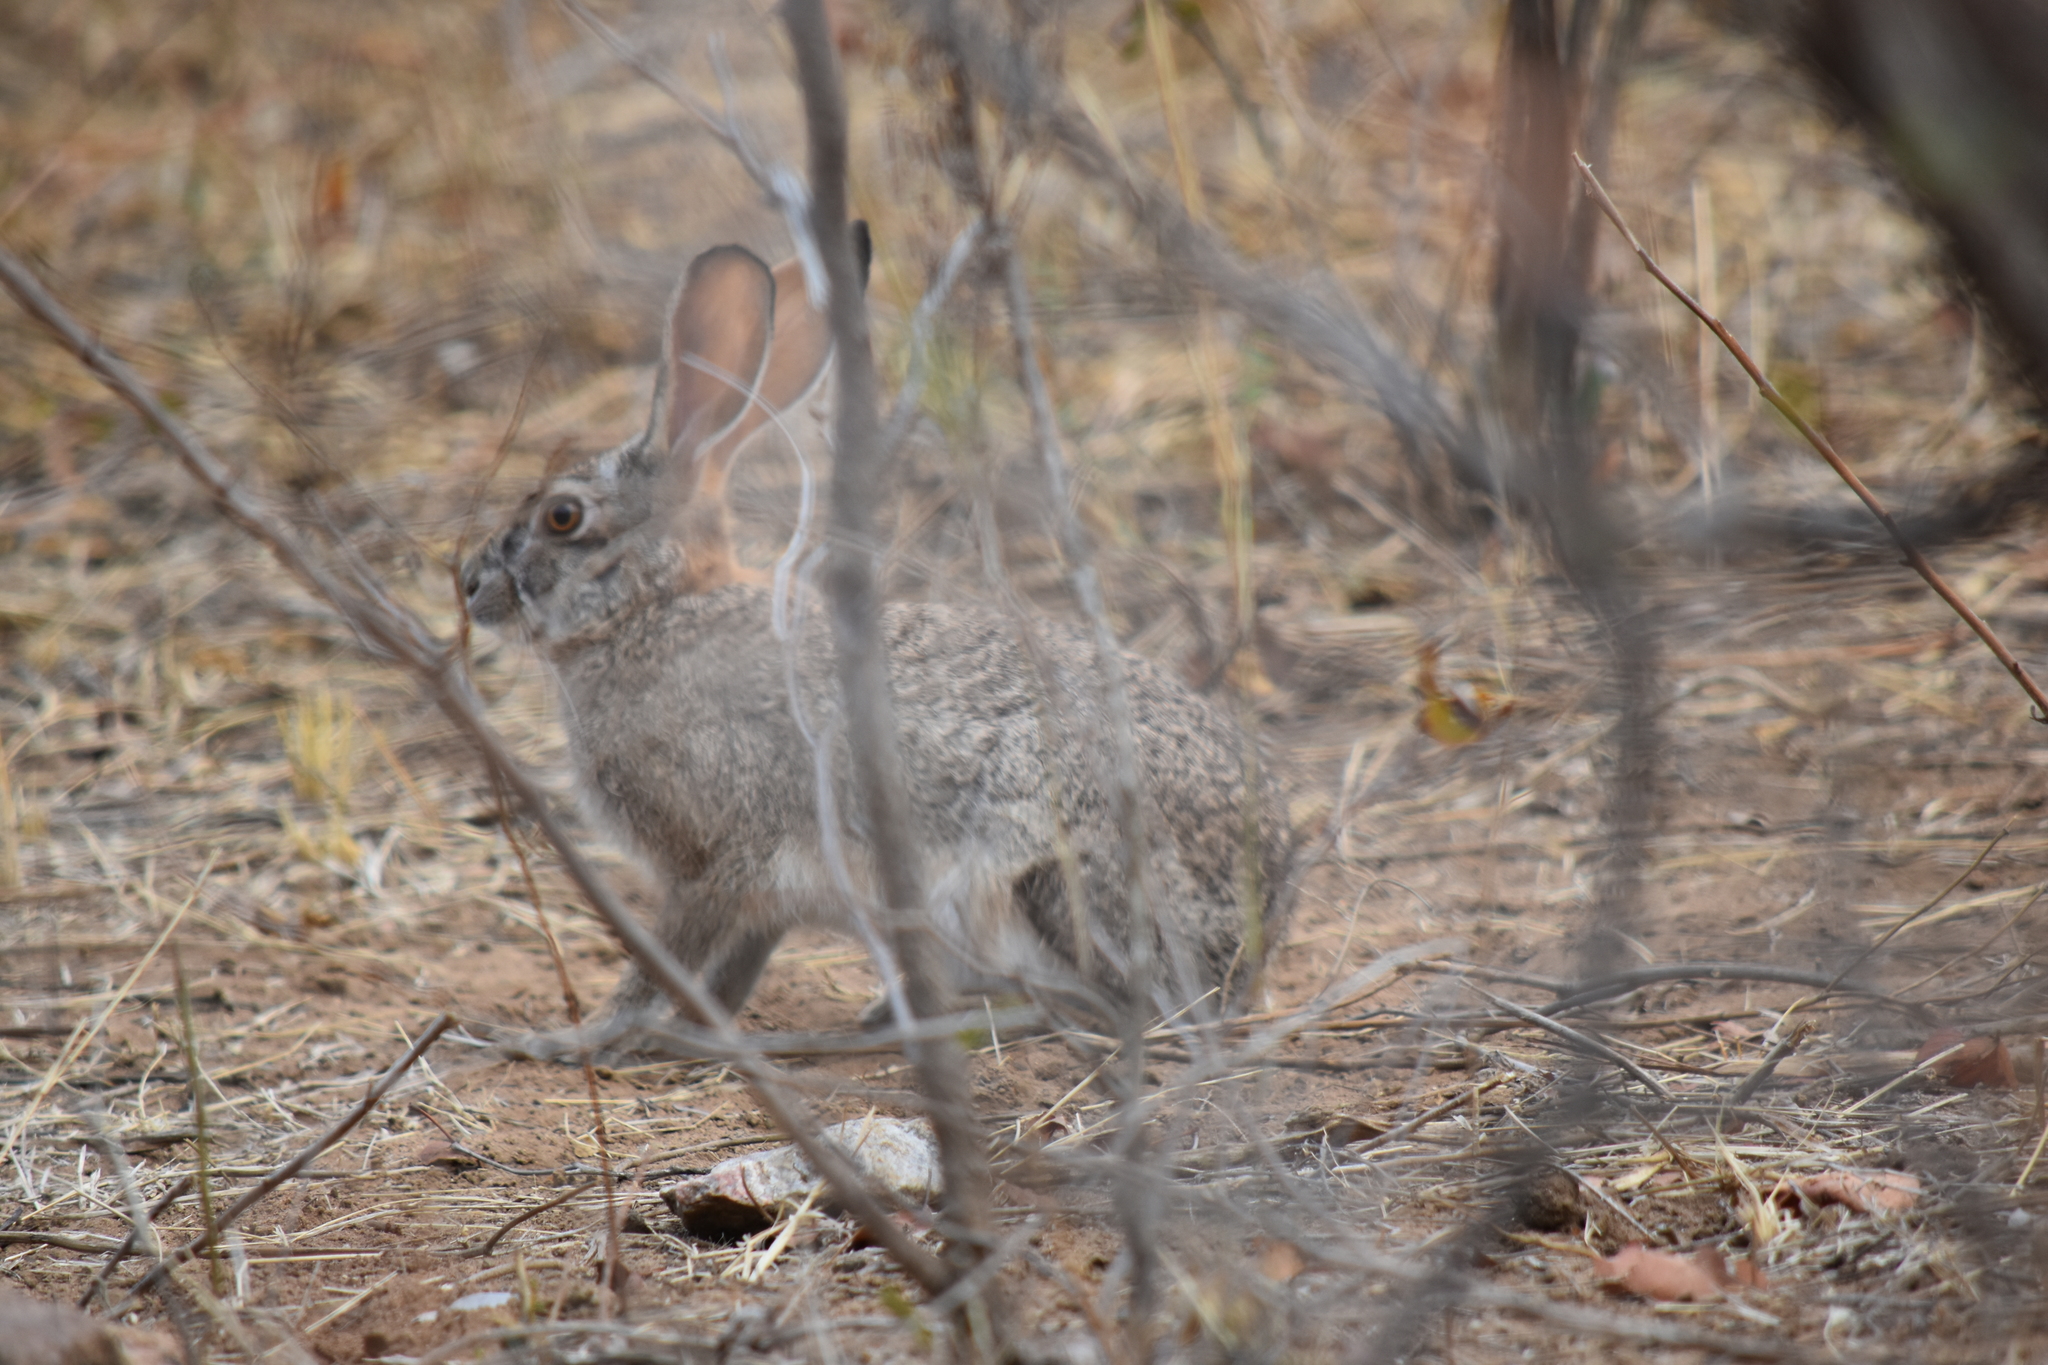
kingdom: Animalia
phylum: Chordata
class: Mammalia
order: Lagomorpha
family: Leporidae
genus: Lepus
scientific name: Lepus saxatilis
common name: Scrub hare
